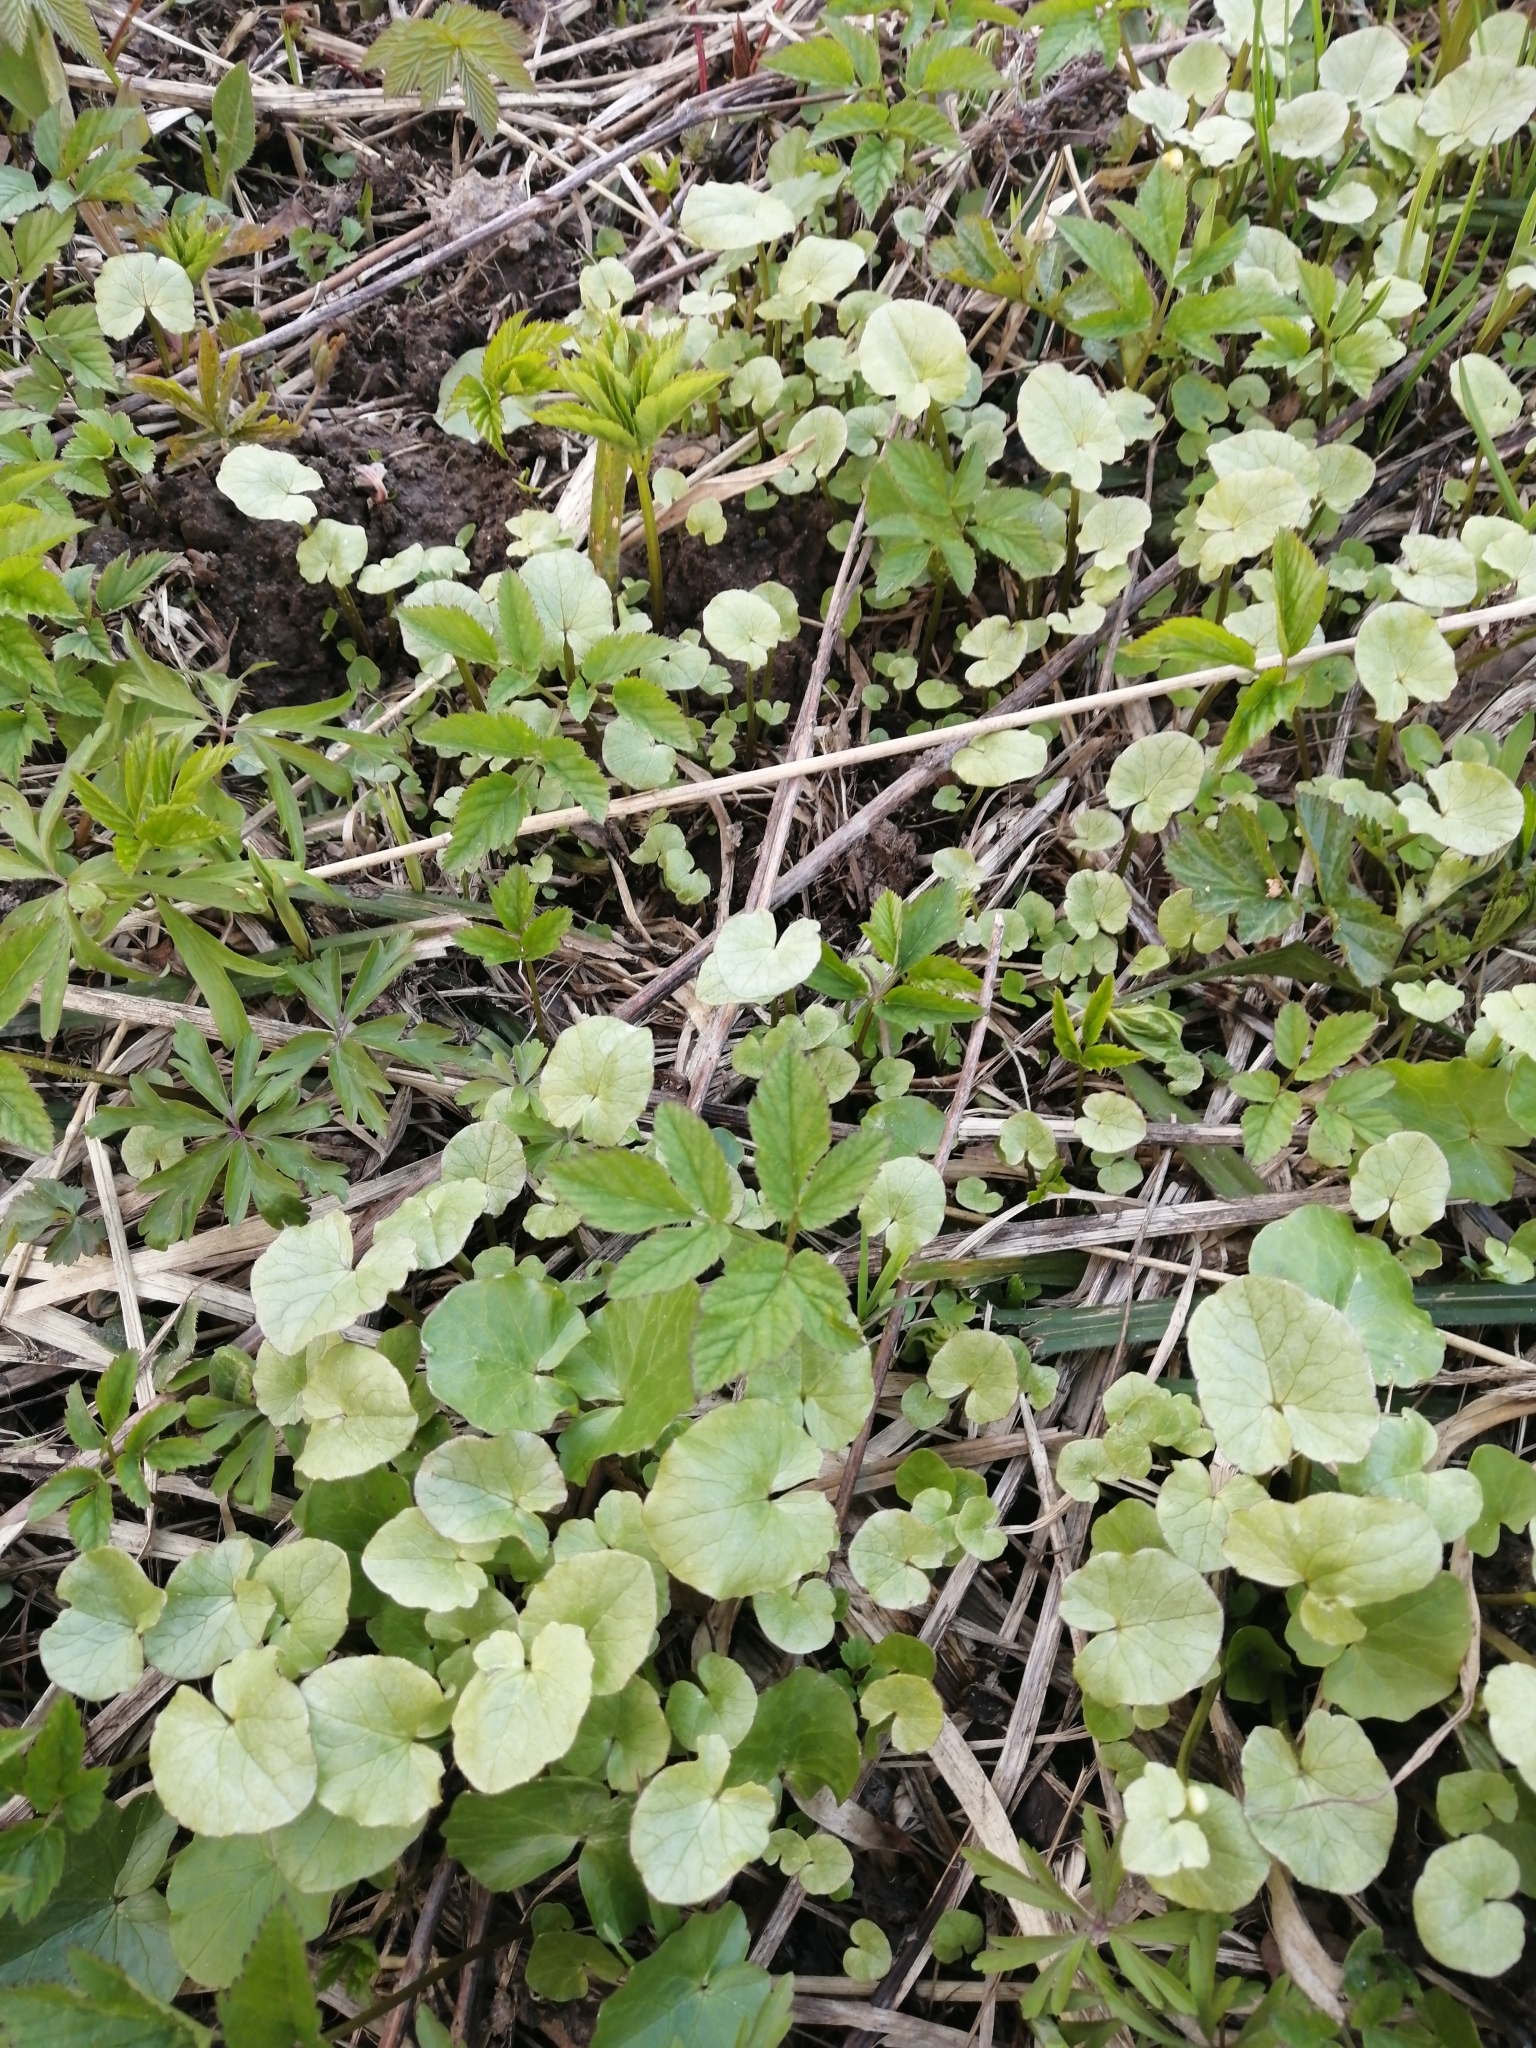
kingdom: Plantae
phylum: Tracheophyta
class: Magnoliopsida
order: Ranunculales
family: Ranunculaceae
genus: Ficaria
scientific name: Ficaria verna
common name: Lesser celandine
